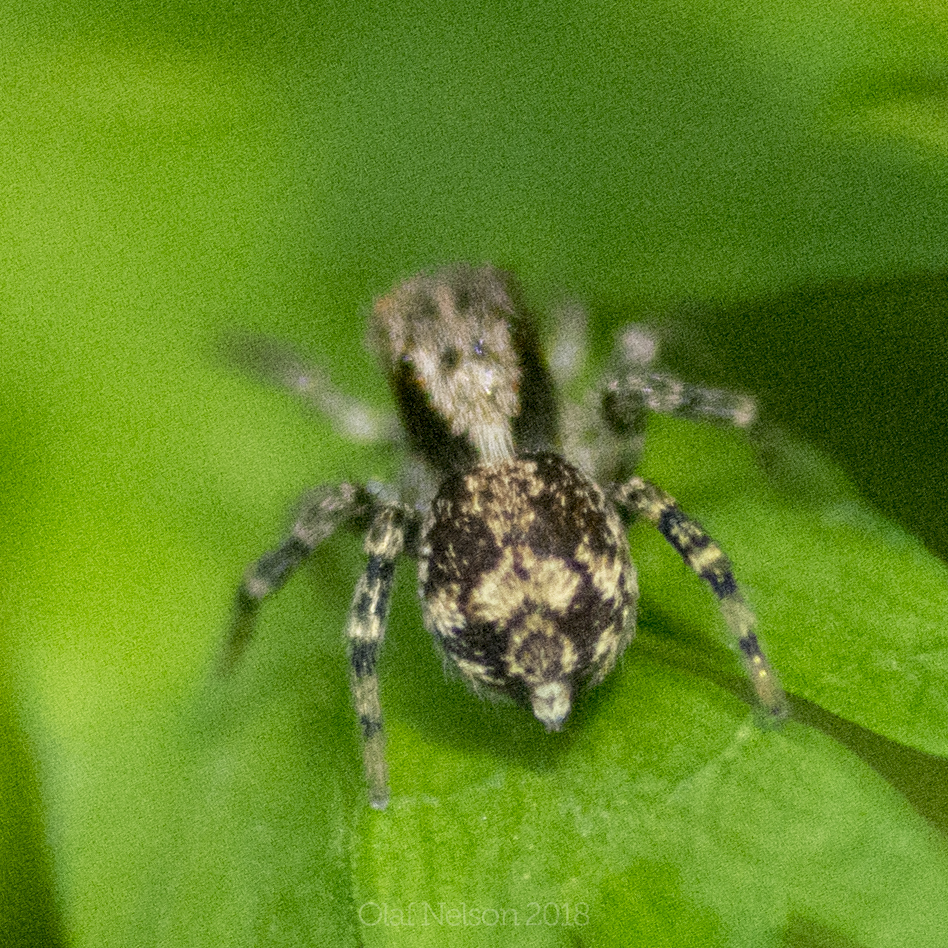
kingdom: Animalia
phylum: Arthropoda
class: Arachnida
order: Araneae
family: Salticidae
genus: Naphrys
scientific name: Naphrys pulex
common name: Flea jumping spider
